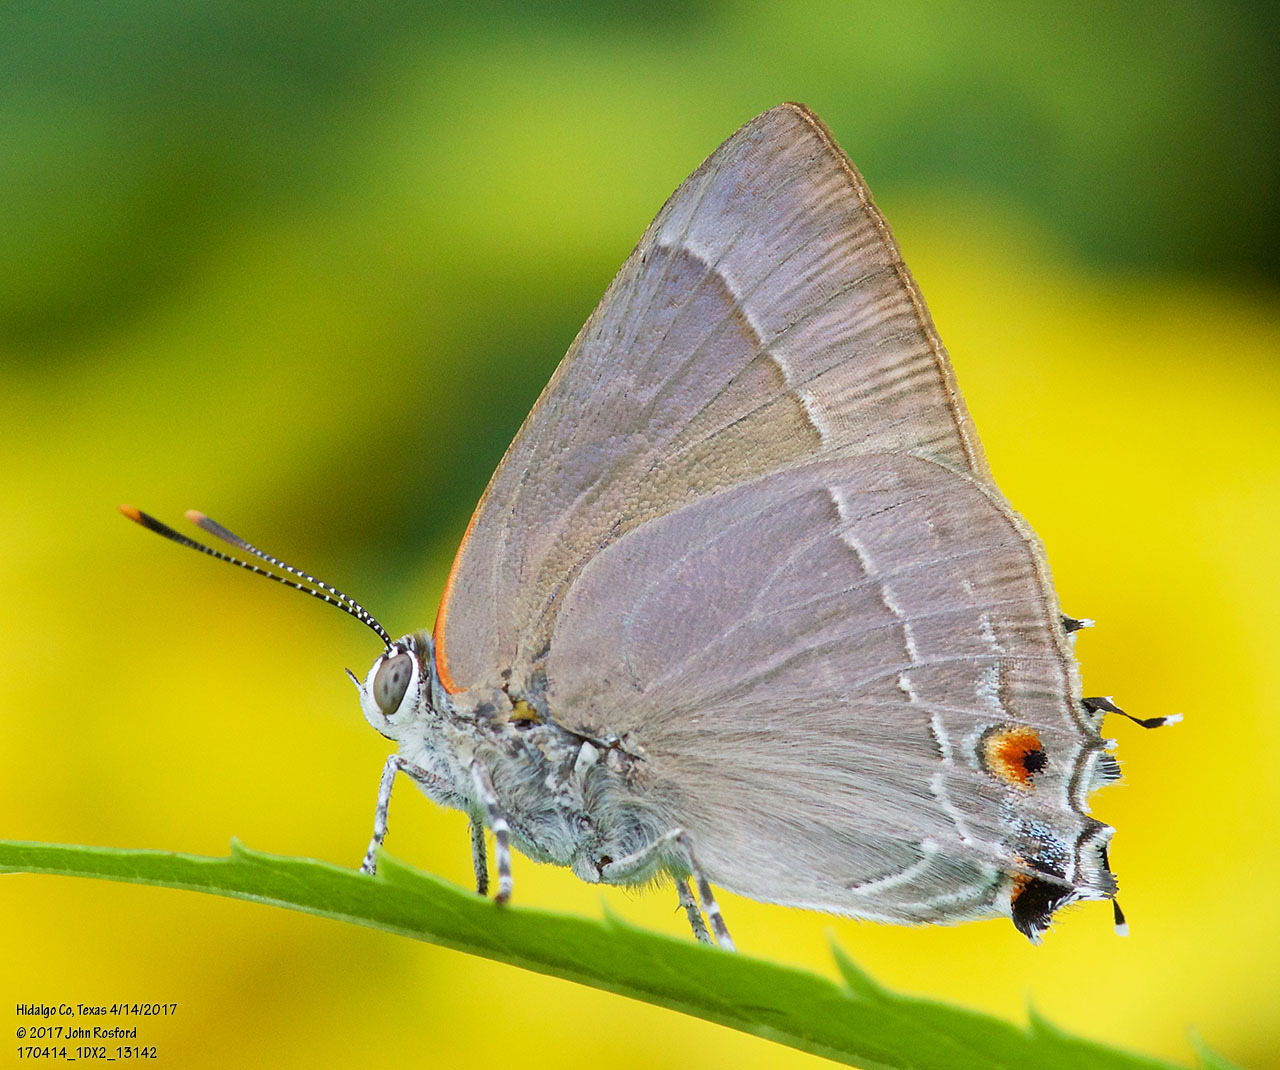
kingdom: Animalia
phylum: Arthropoda
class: Insecta
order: Lepidoptera
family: Lycaenidae
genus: Thecla
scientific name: Thecla marius
